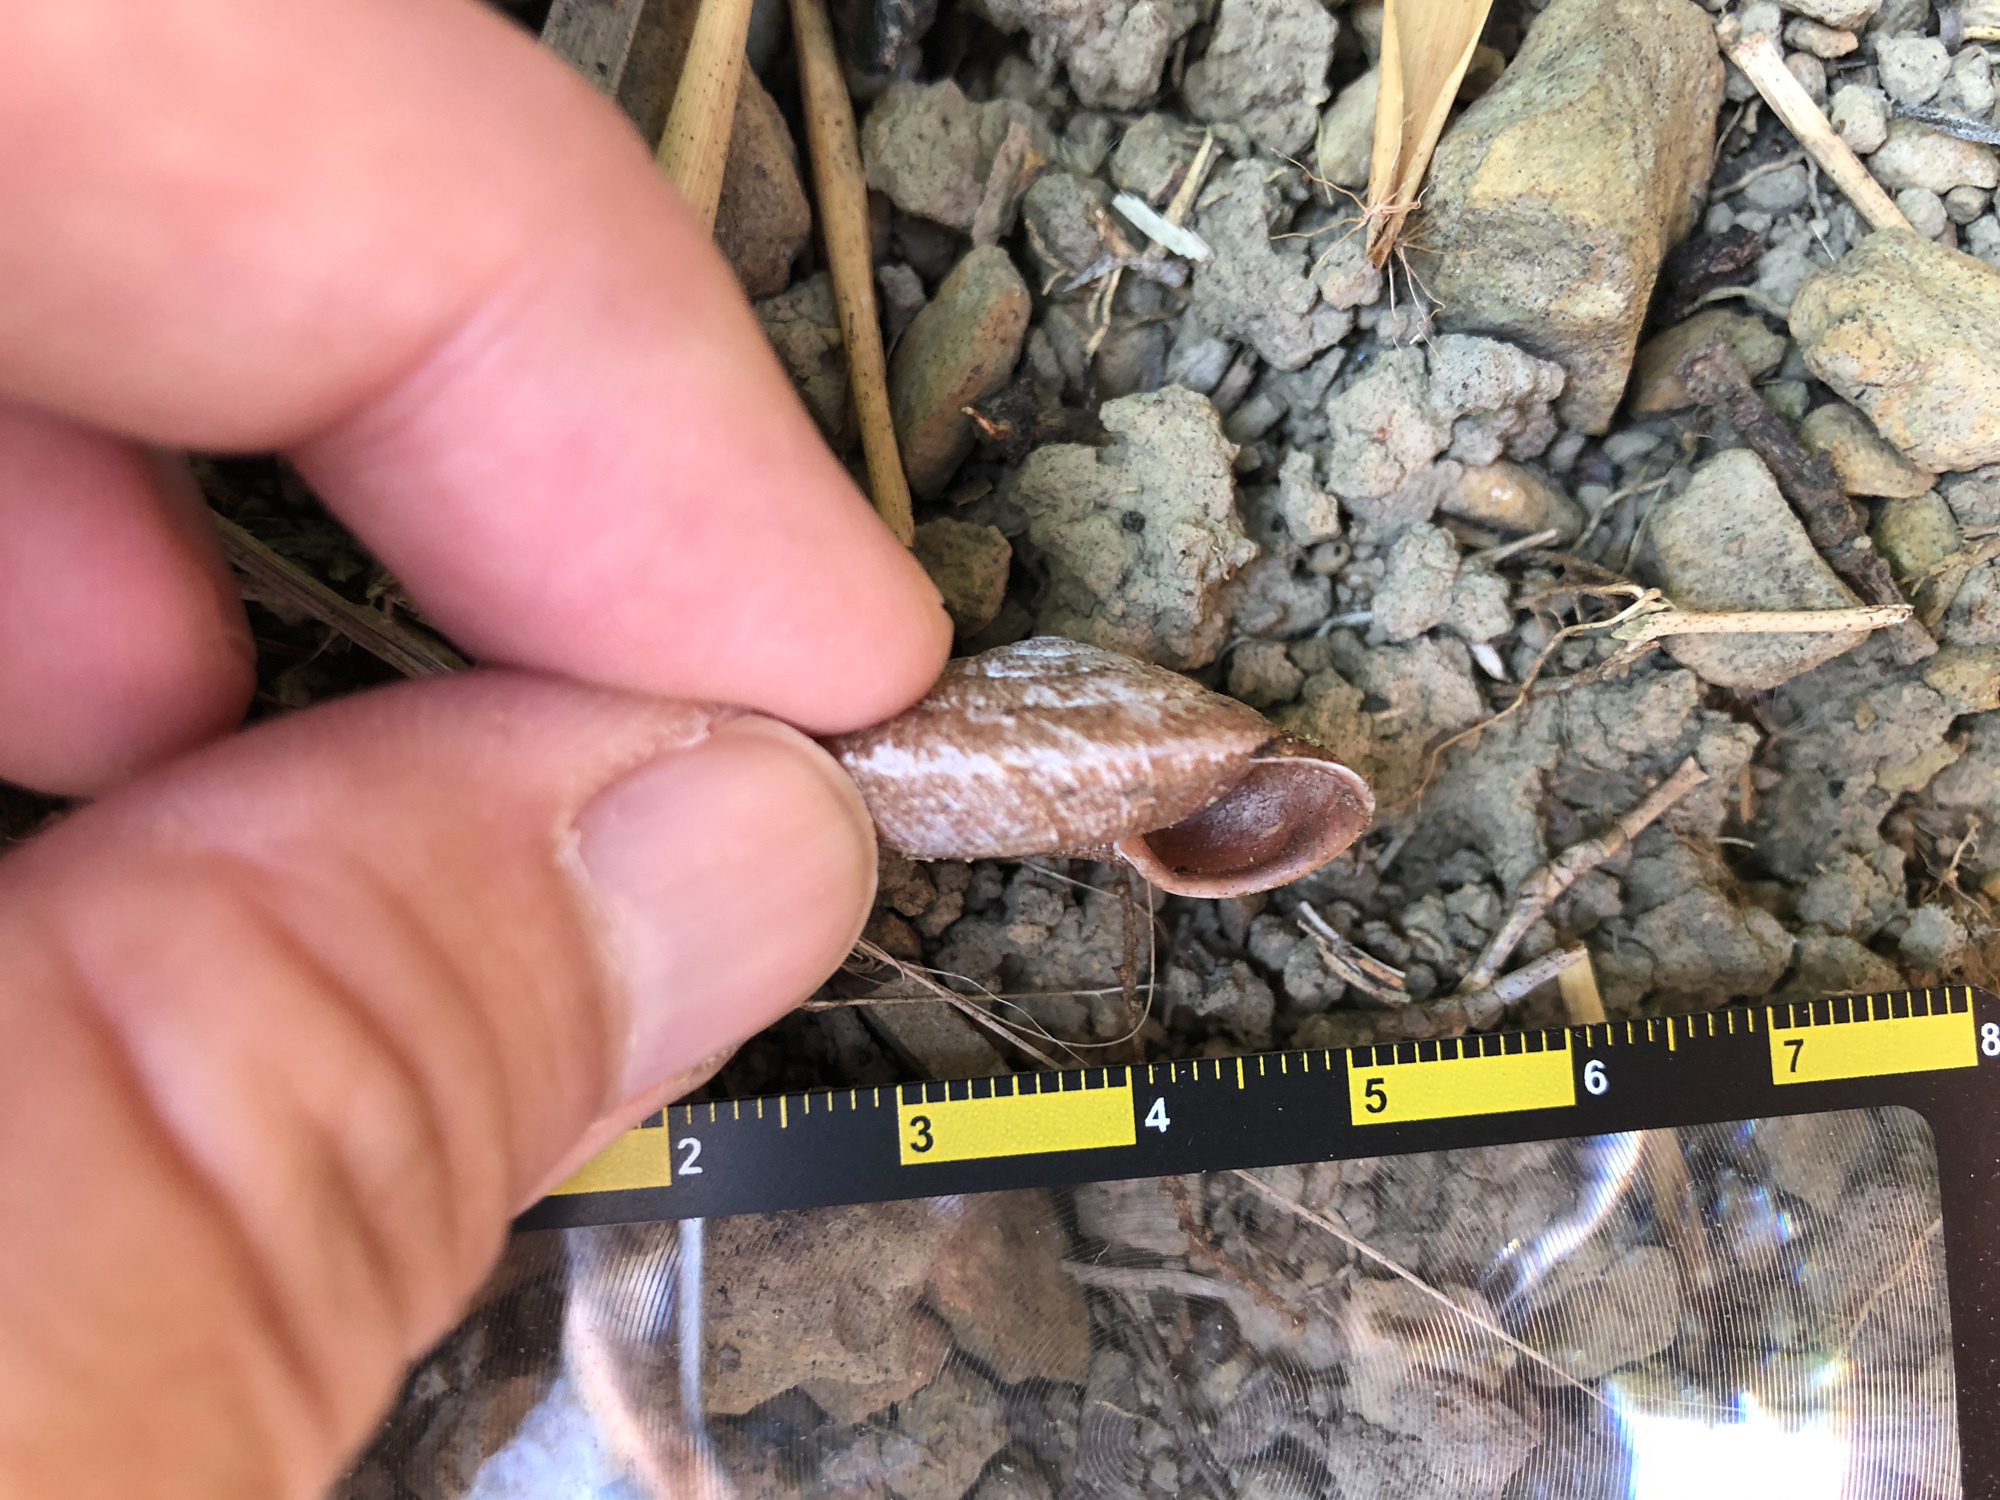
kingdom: Animalia
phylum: Mollusca
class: Gastropoda
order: Stylommatophora
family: Camaenidae
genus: Plectotropis
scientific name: Plectotropis mackensii
